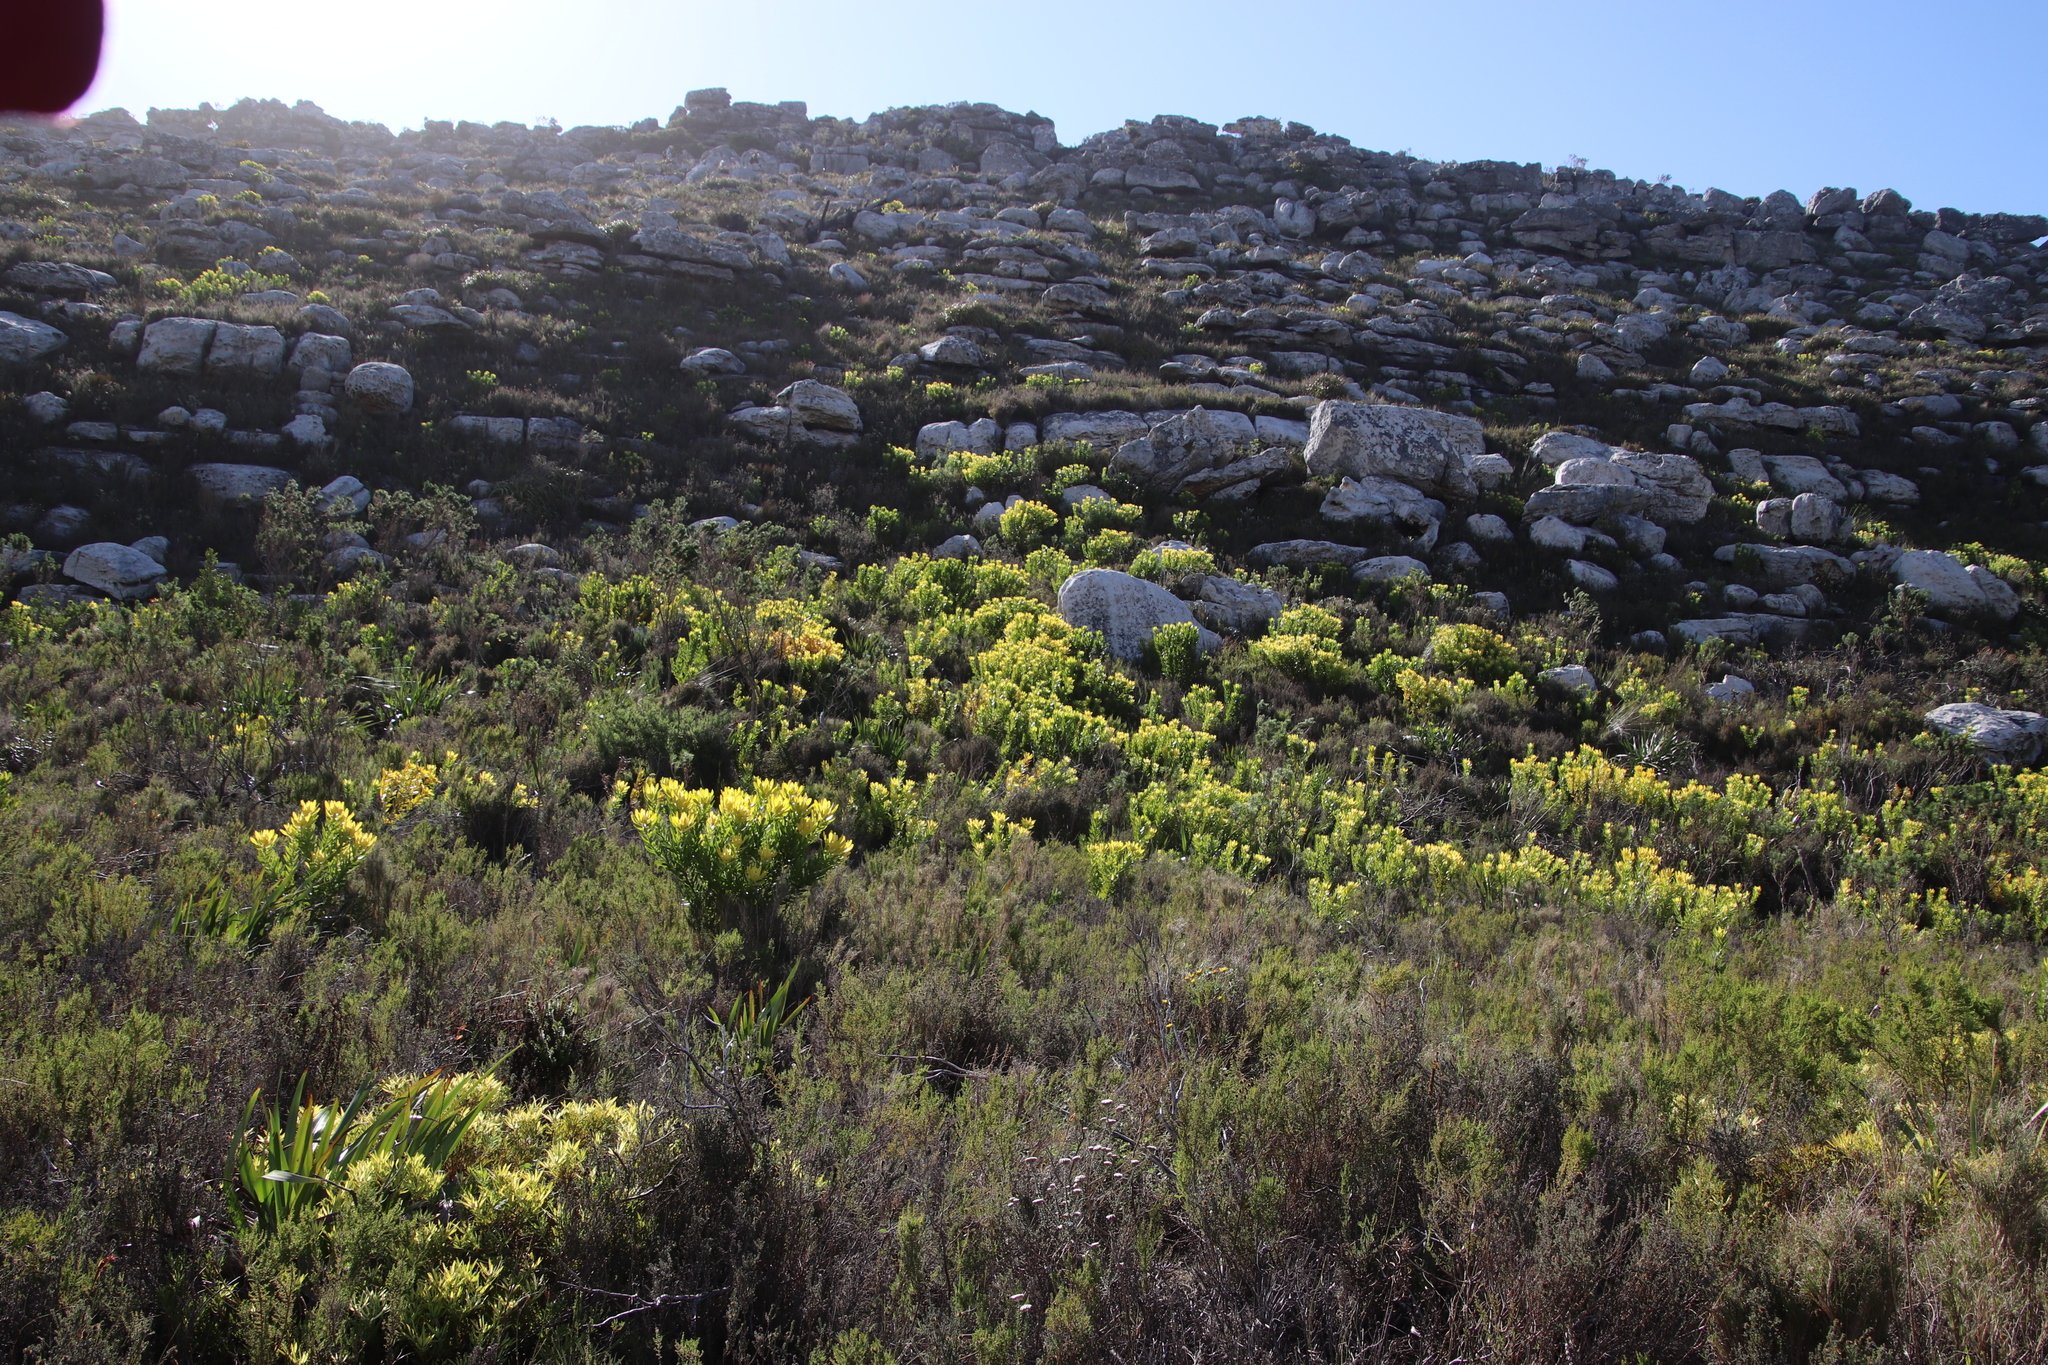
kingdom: Plantae
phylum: Tracheophyta
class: Magnoliopsida
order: Proteales
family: Proteaceae
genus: Leucadendron
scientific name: Leucadendron laureolum
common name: Golden sunshinebush
